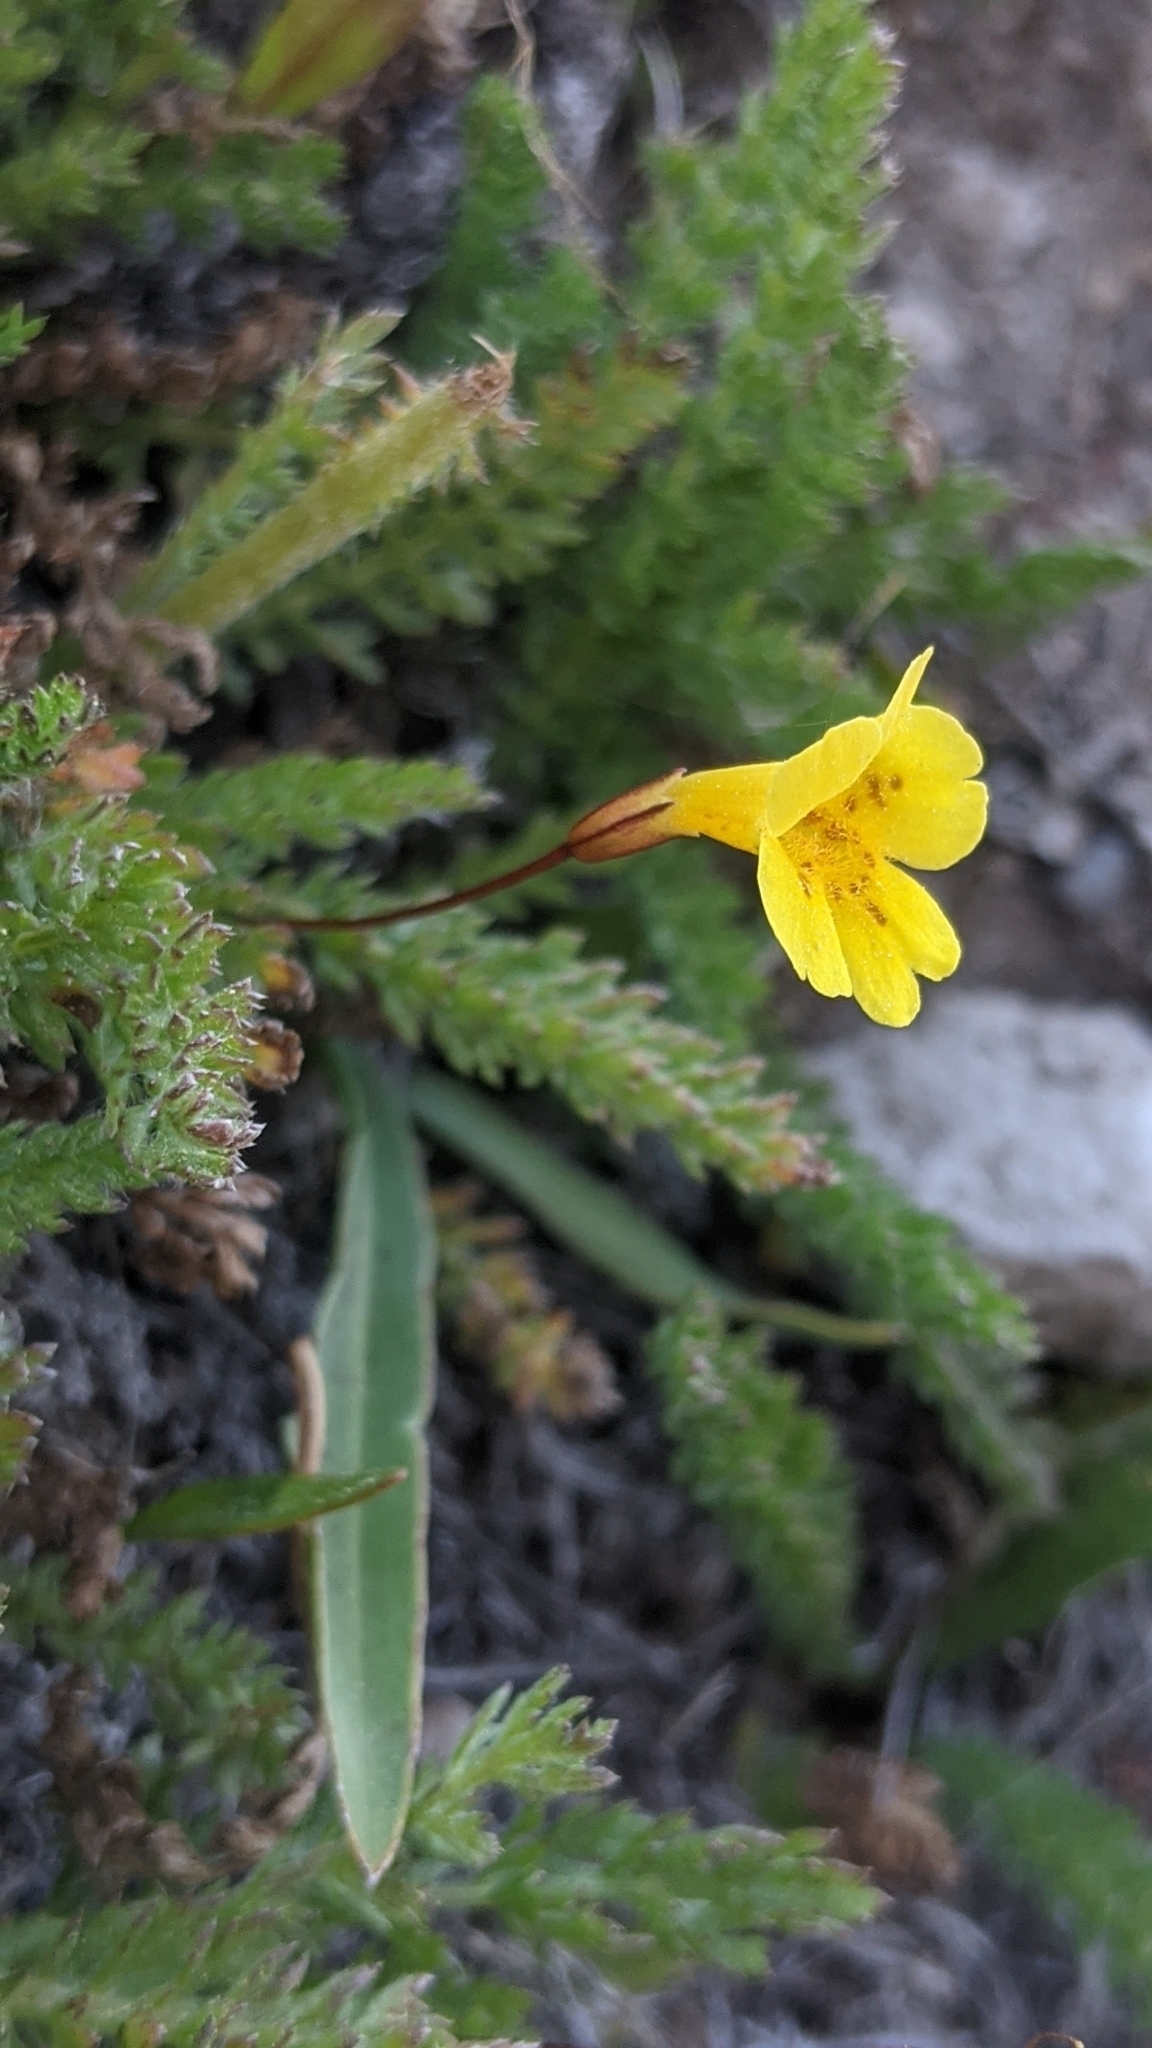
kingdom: Plantae
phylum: Tracheophyta
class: Magnoliopsida
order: Lamiales
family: Phrymaceae
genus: Erythranthe
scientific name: Erythranthe primuloides
